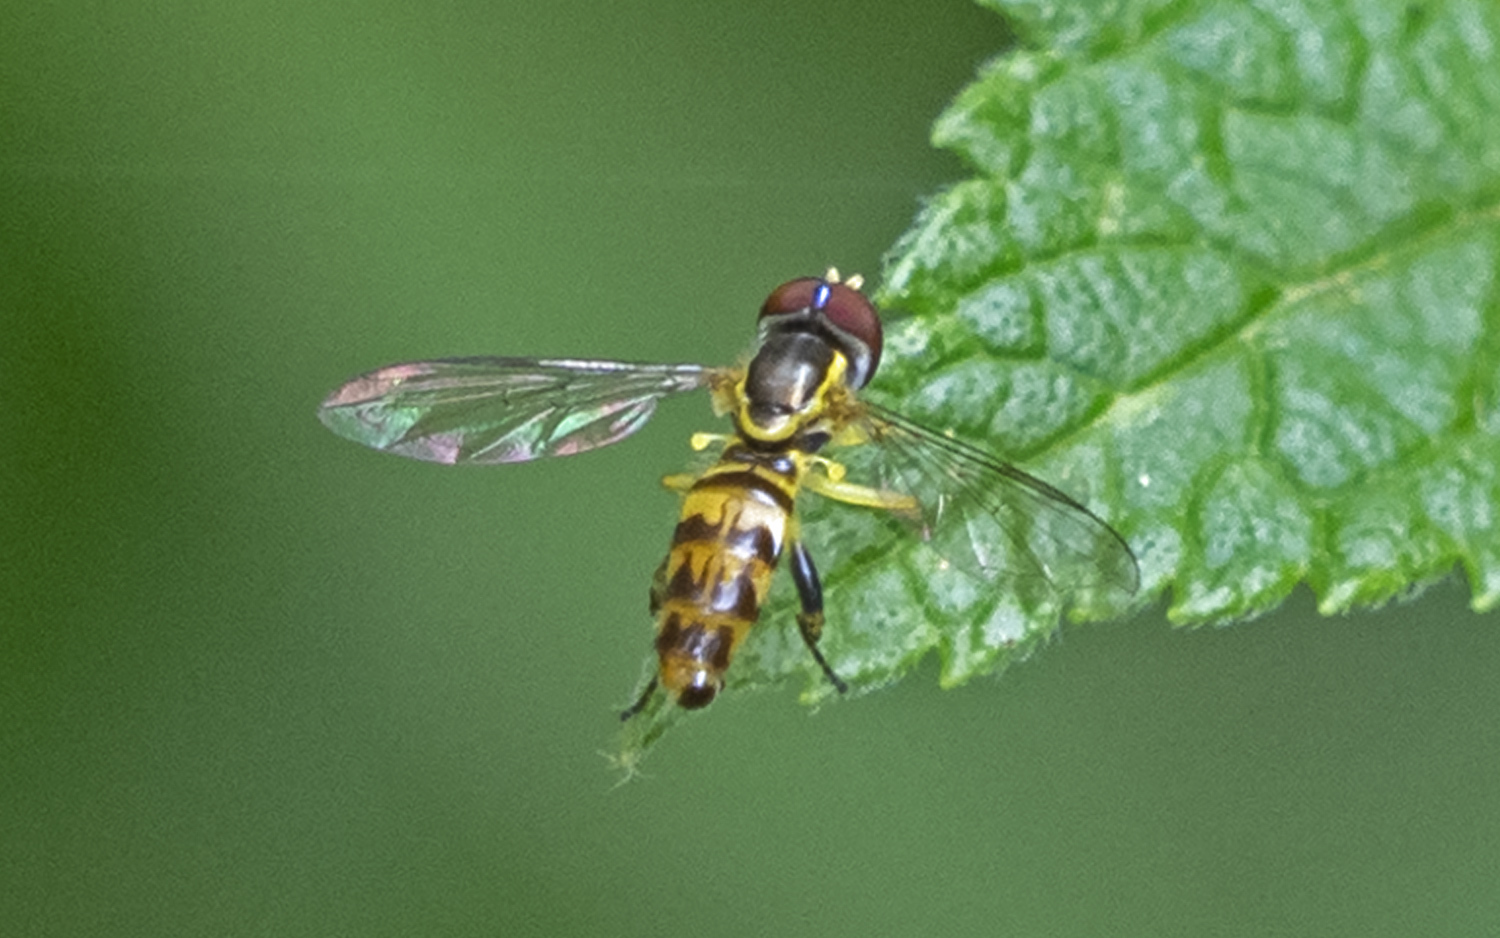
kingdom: Animalia
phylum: Arthropoda
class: Insecta
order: Diptera
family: Syrphidae
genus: Toxomerus
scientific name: Toxomerus geminatus
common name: Eastern calligrapher
